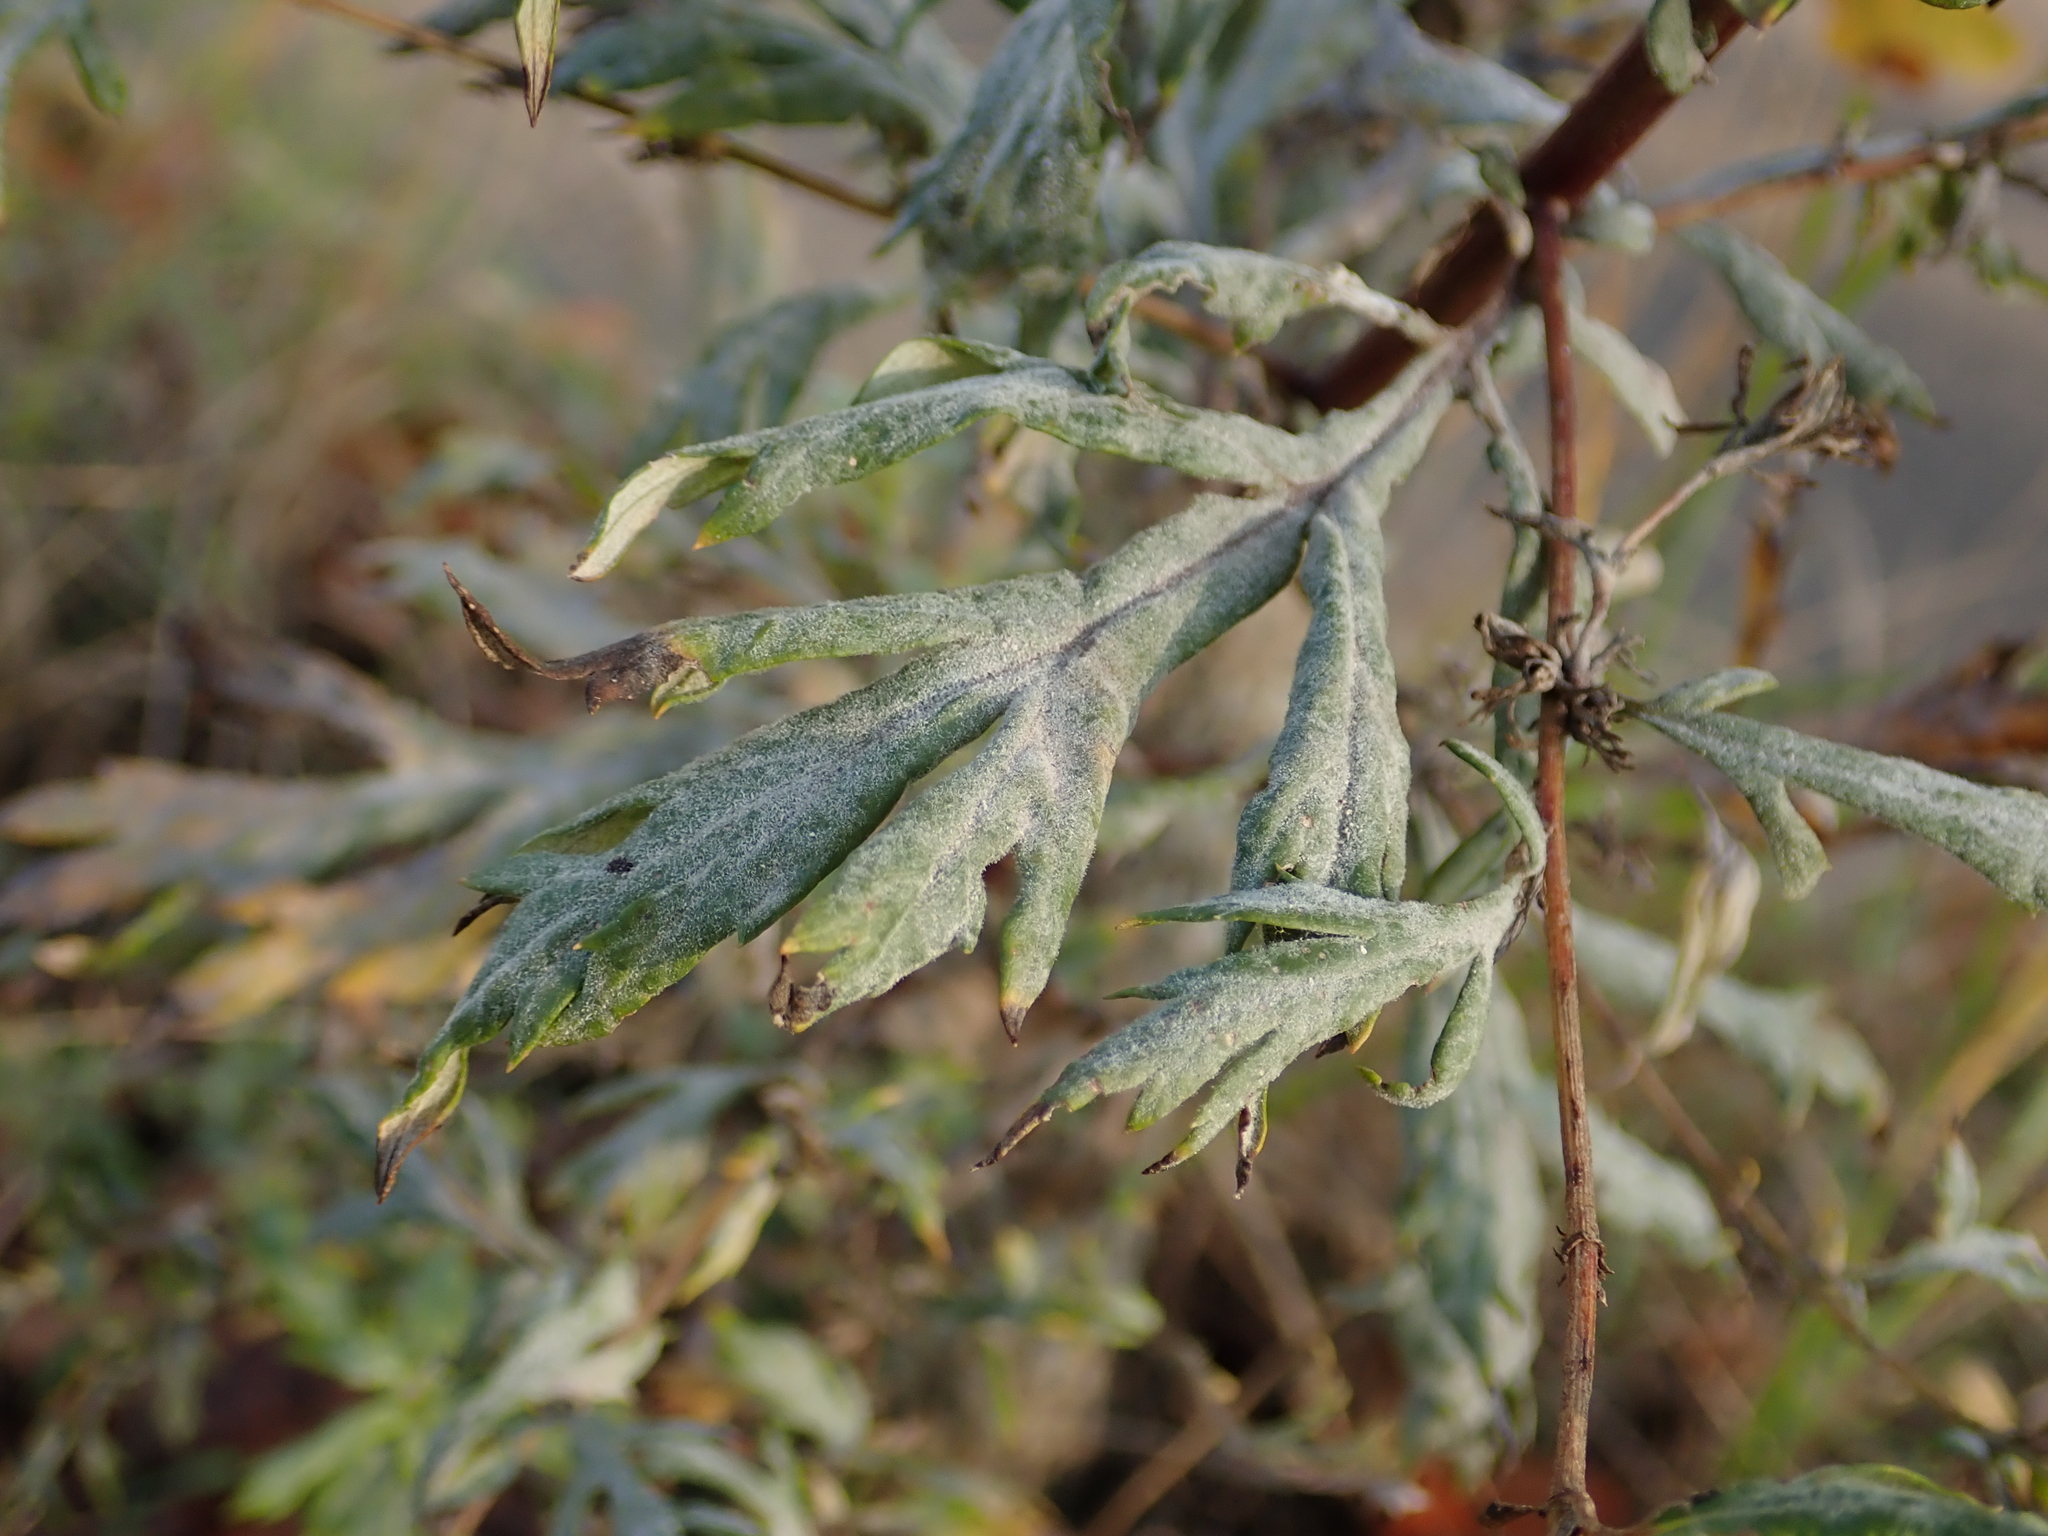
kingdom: Fungi
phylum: Ascomycota
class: Leotiomycetes
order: Helotiales
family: Erysiphaceae
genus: Golovinomyces
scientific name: Golovinomyces artemisiae
